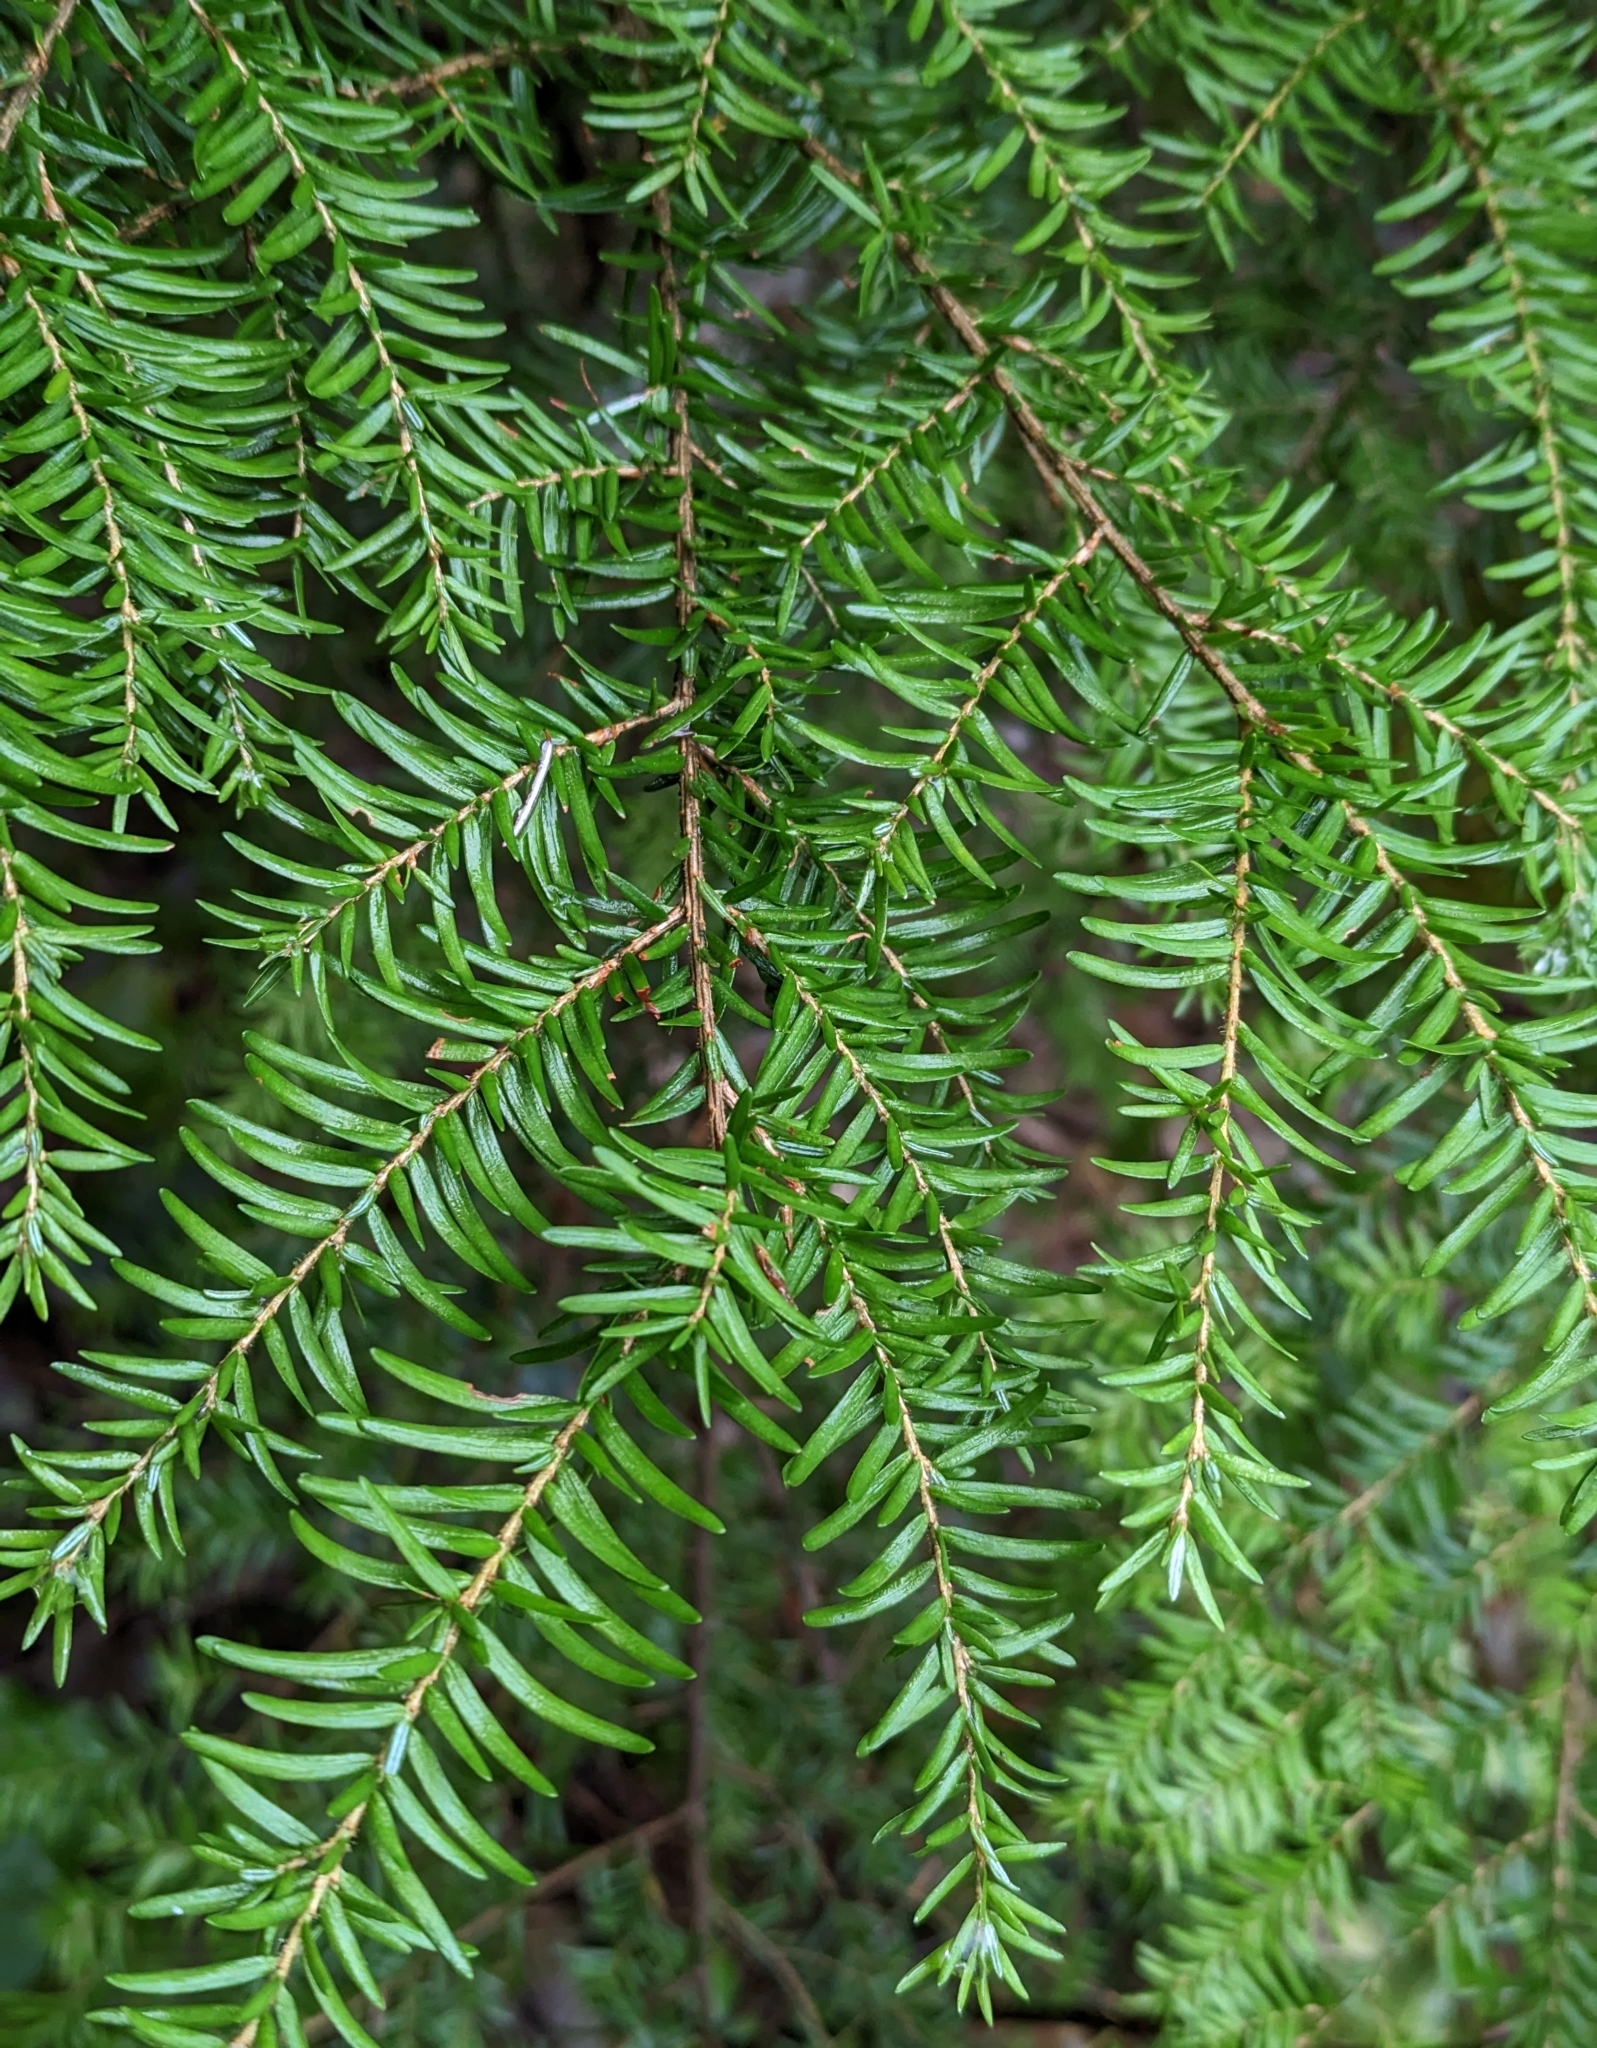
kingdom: Plantae
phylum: Tracheophyta
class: Pinopsida
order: Pinales
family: Pinaceae
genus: Tsuga
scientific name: Tsuga heterophylla
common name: Western hemlock
